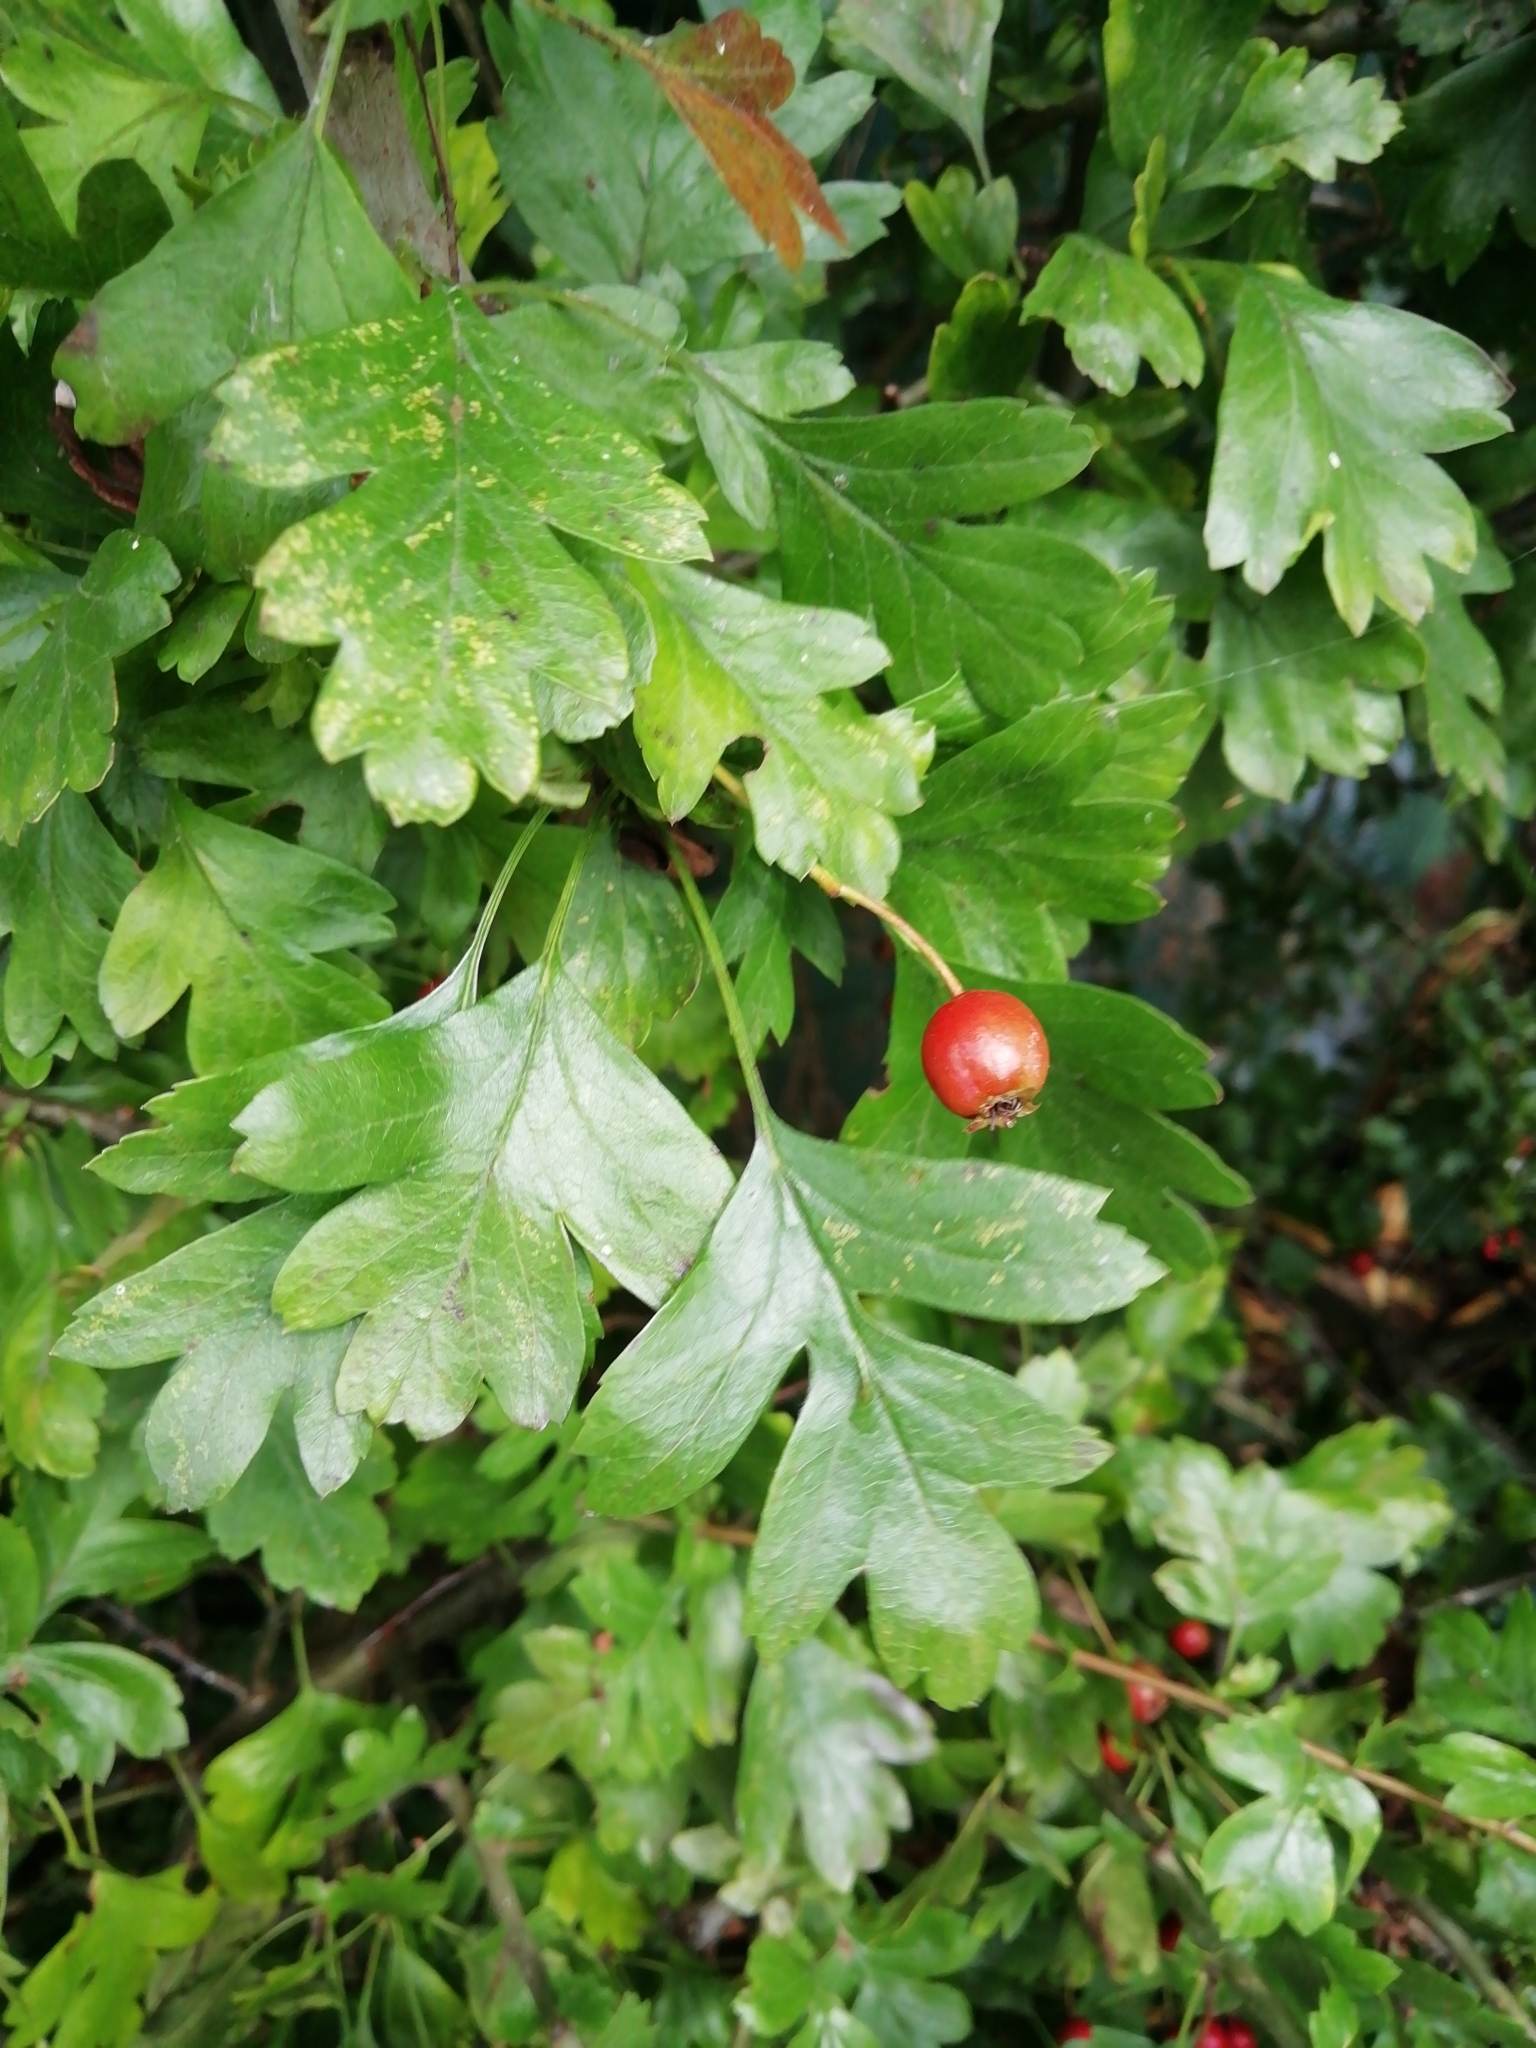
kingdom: Plantae
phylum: Tracheophyta
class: Magnoliopsida
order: Rosales
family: Rosaceae
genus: Crataegus
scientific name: Crataegus monogyna
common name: Hawthorn
